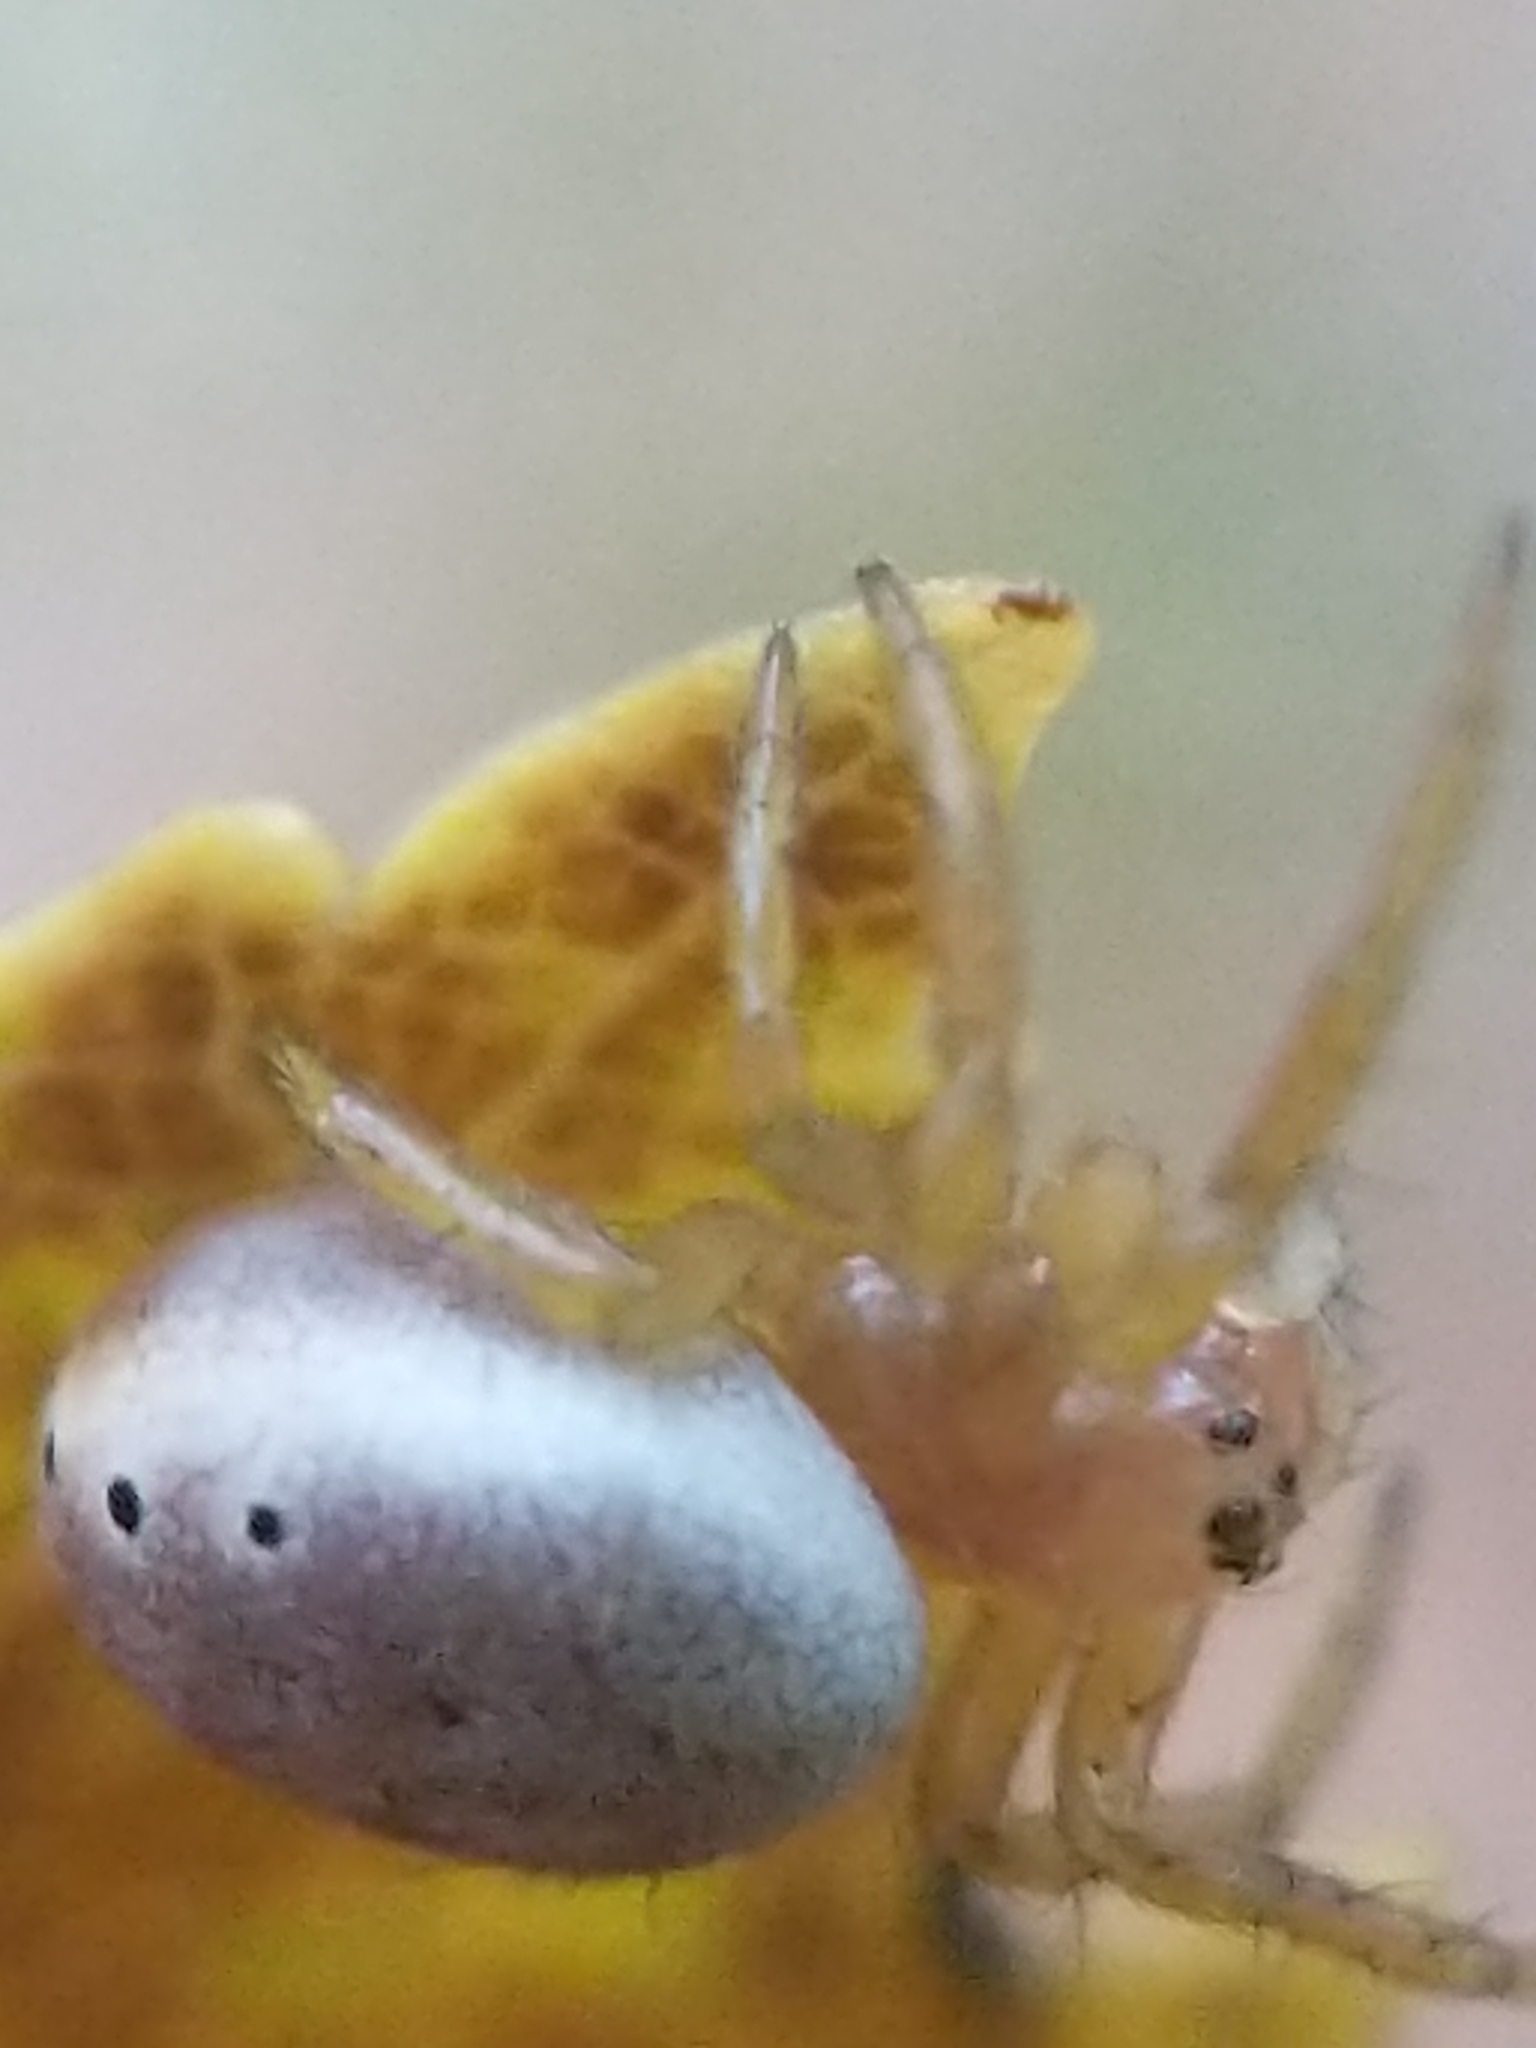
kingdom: Animalia
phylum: Arthropoda
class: Arachnida
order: Araneae
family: Araneidae
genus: Araniella
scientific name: Araniella displicata
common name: Sixspotted orb weaver
